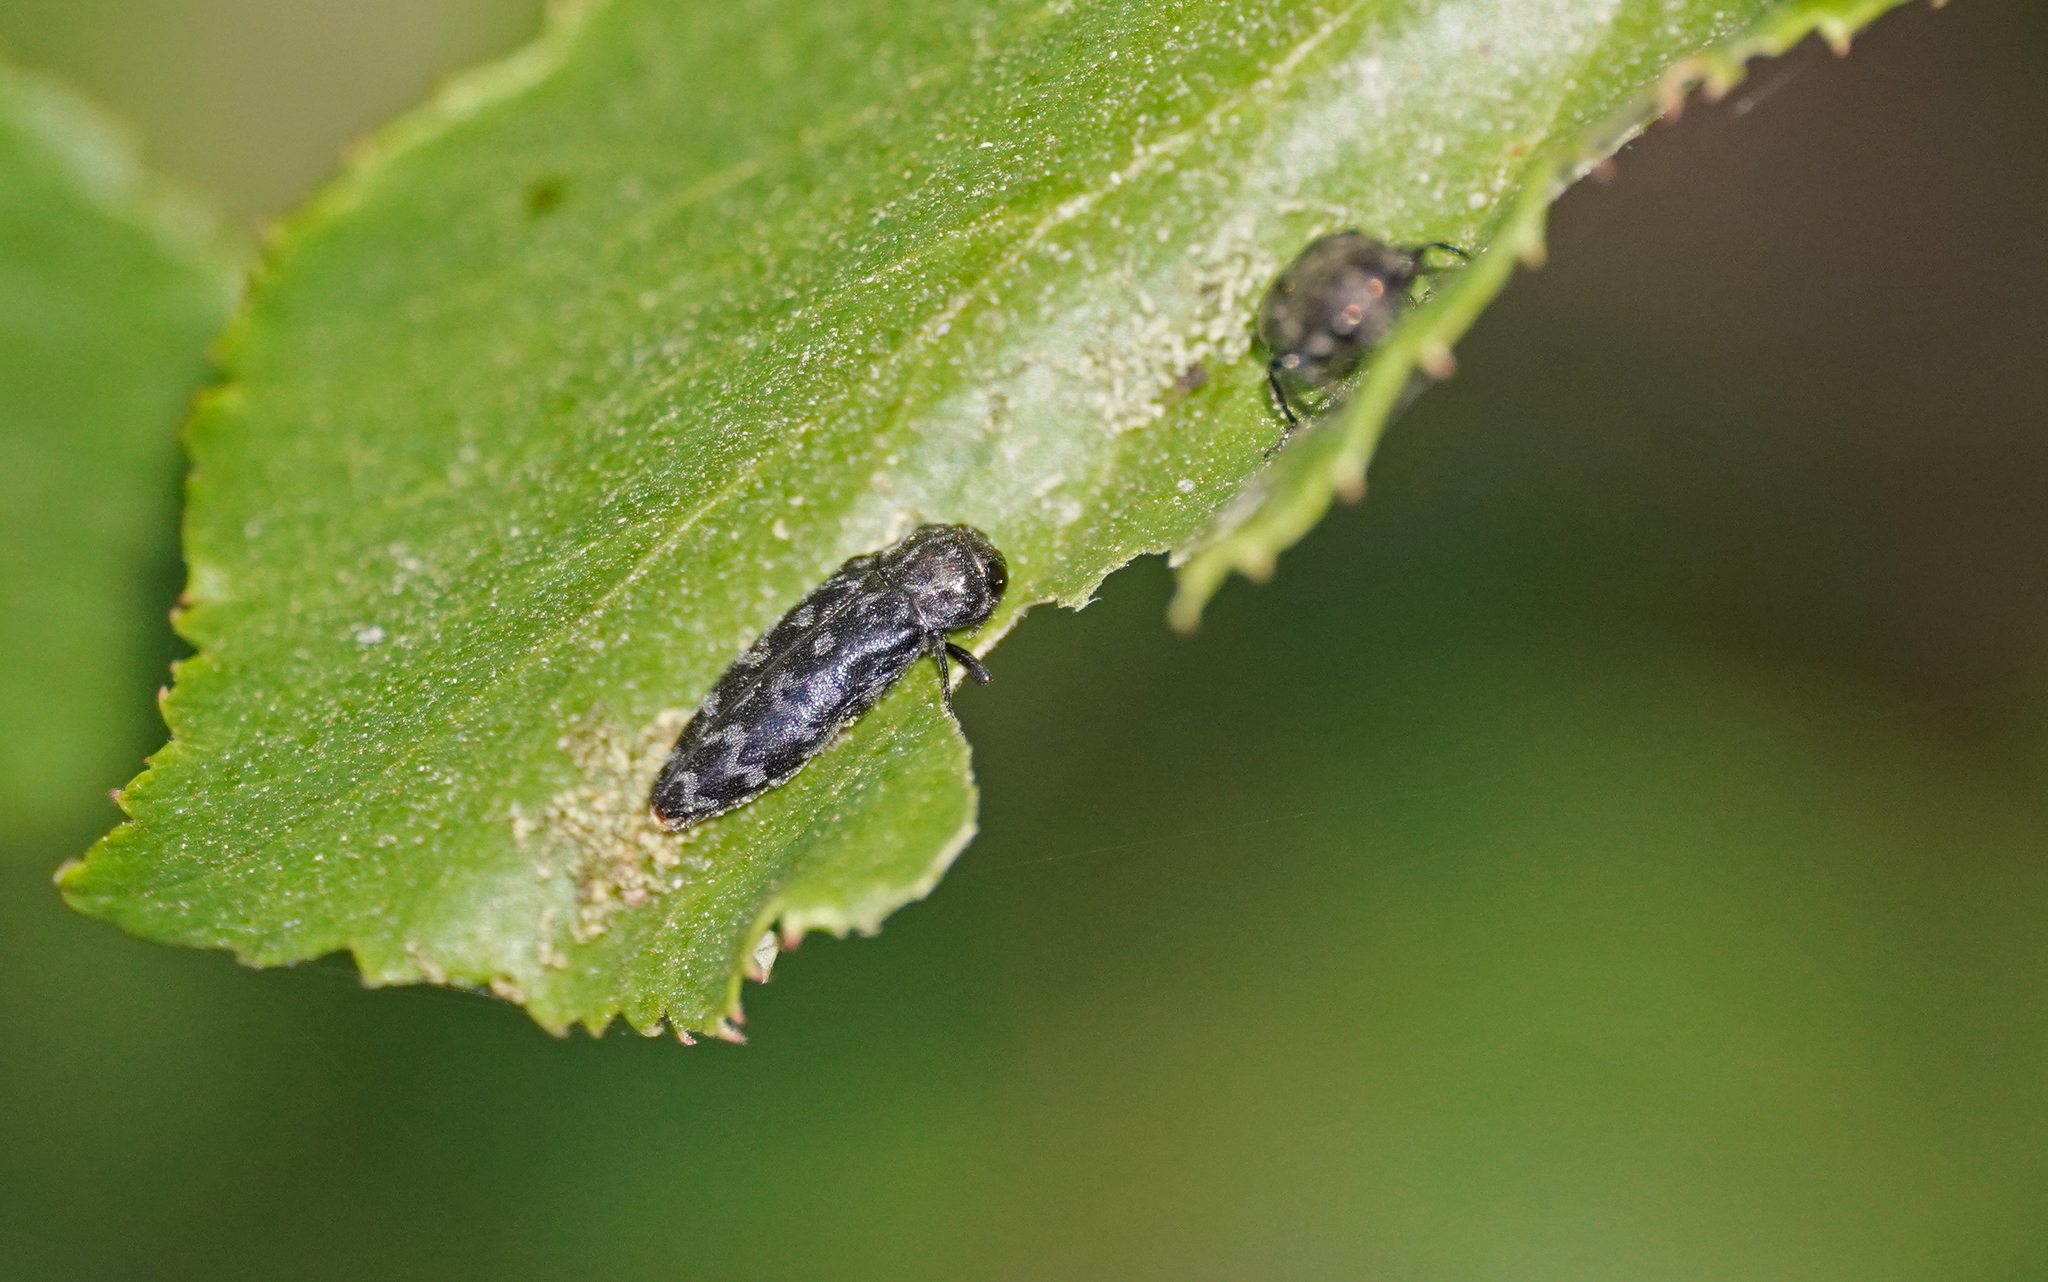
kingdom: Animalia
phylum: Arthropoda
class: Insecta
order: Coleoptera
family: Buprestidae
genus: Coraebus
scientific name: Coraebus rubi
